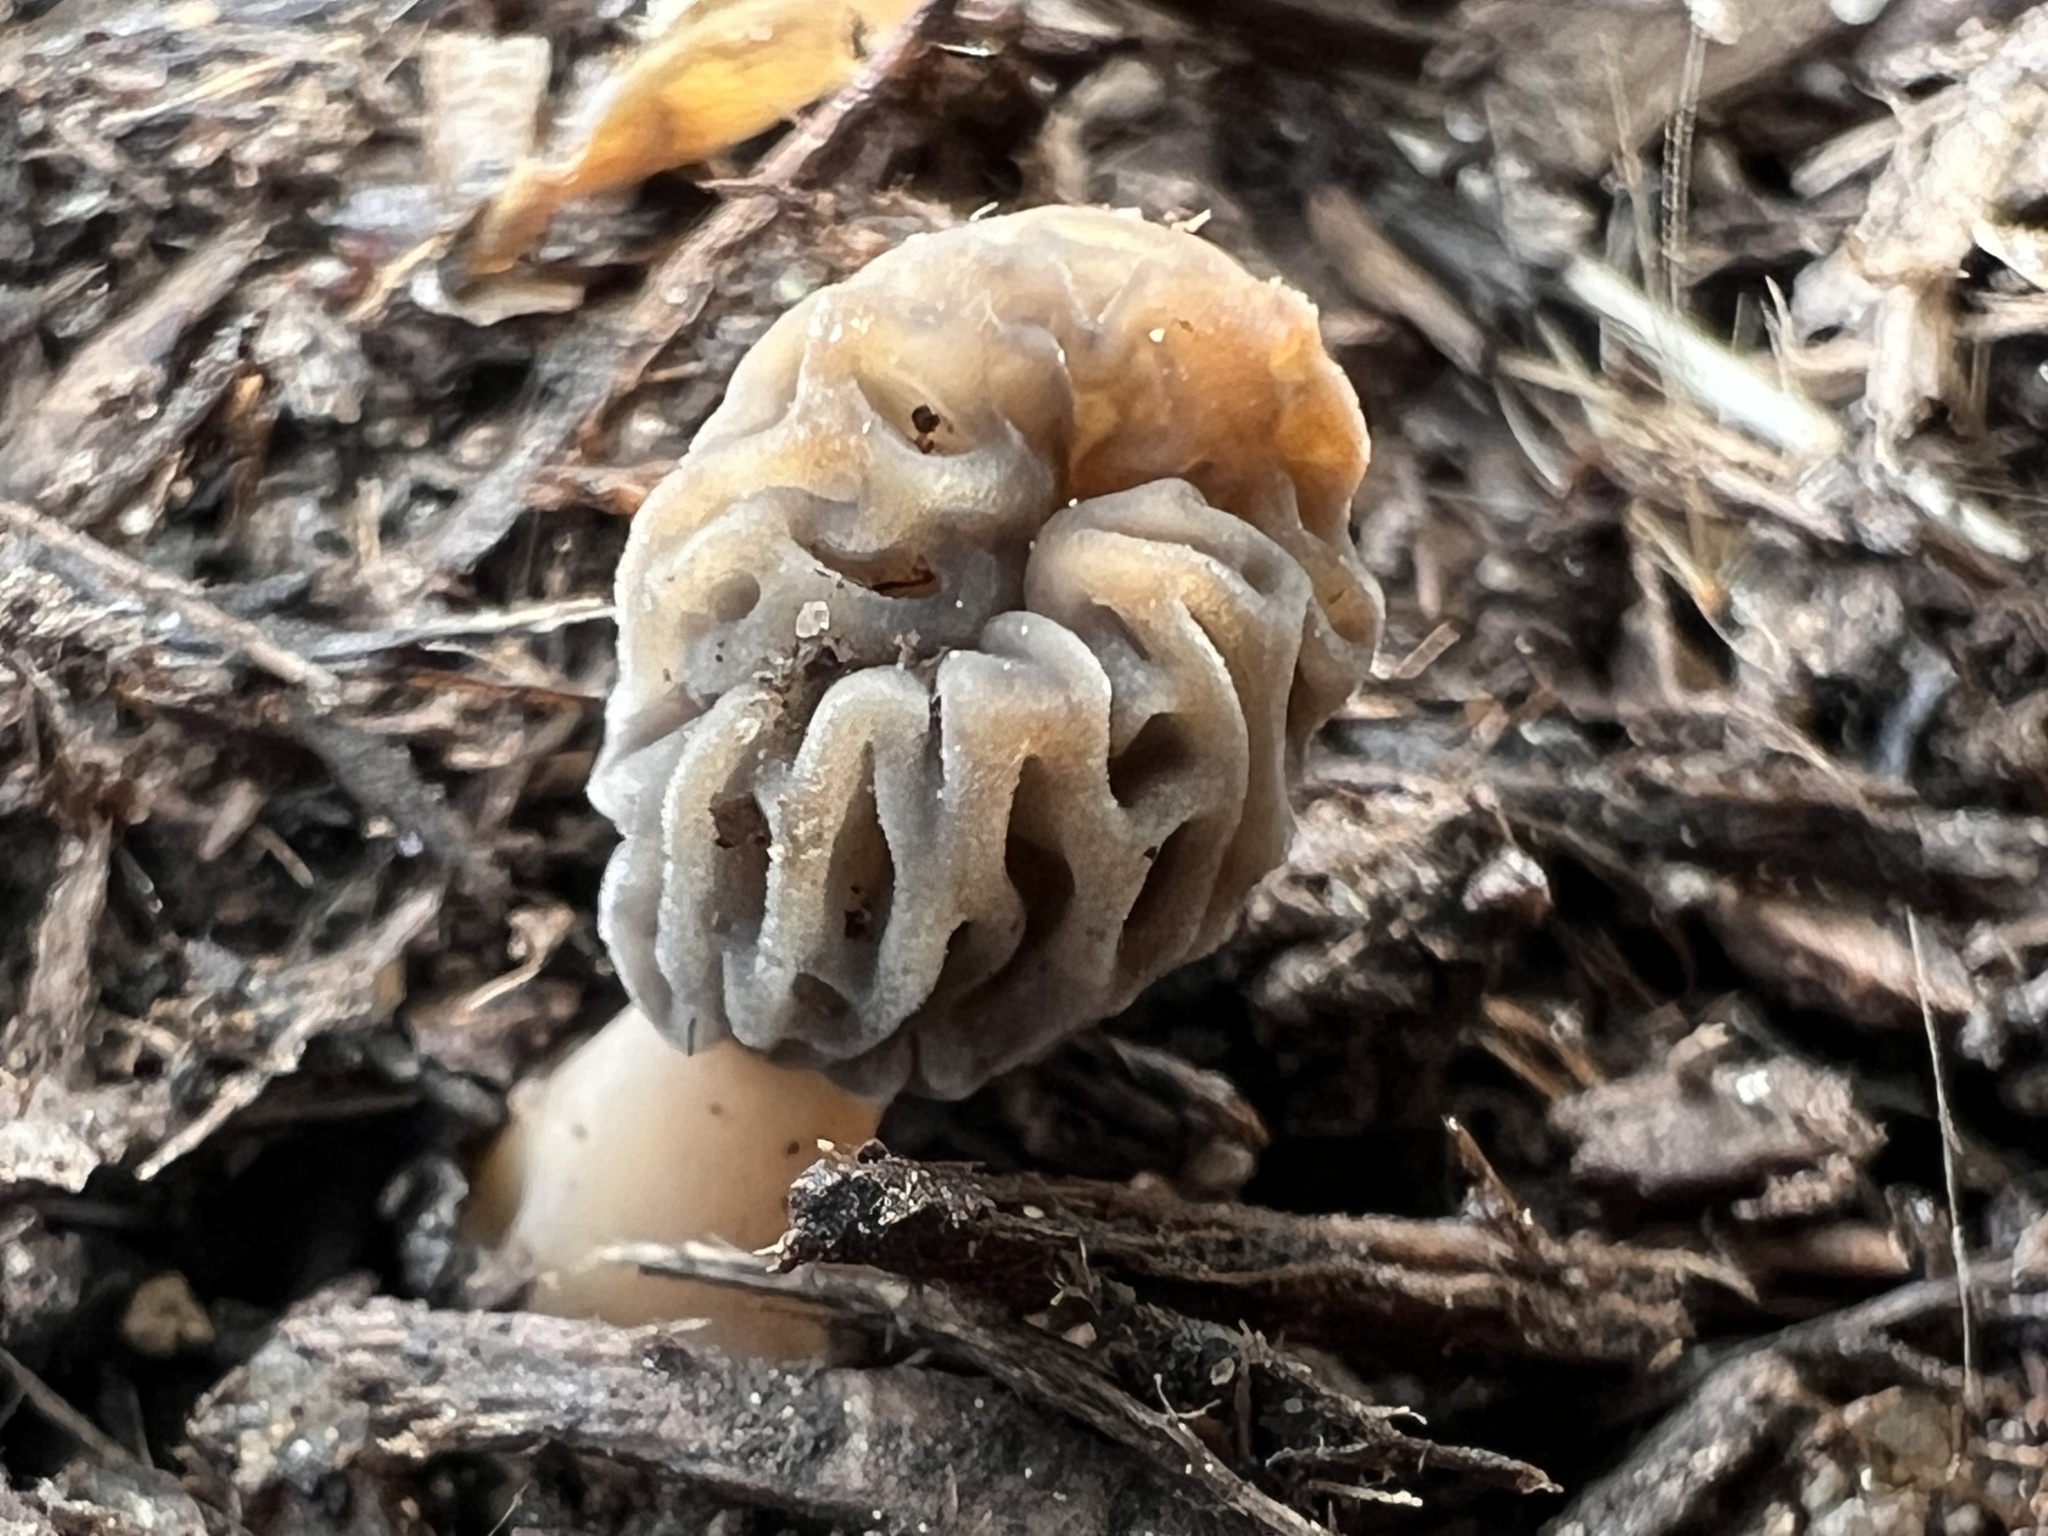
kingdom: Fungi
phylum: Ascomycota
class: Pezizomycetes
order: Pezizales
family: Morchellaceae
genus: Morchella
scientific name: Morchella diminutiva
